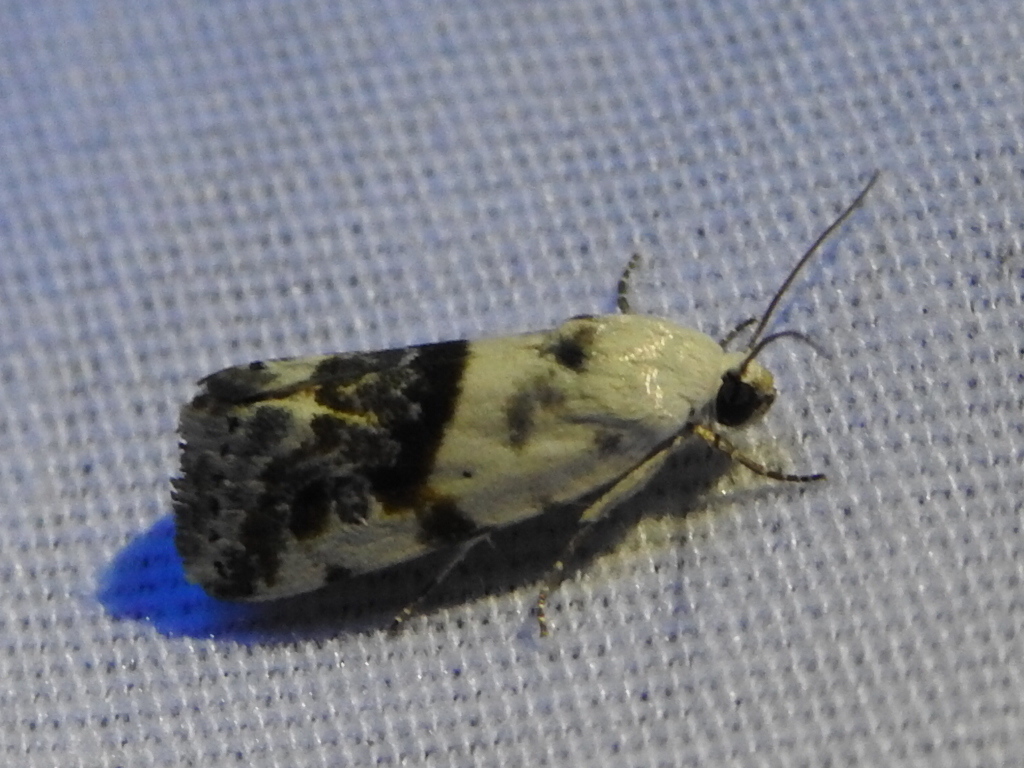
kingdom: Animalia
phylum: Arthropoda
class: Insecta
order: Lepidoptera
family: Noctuidae
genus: Acontia
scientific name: Acontia candefacta
